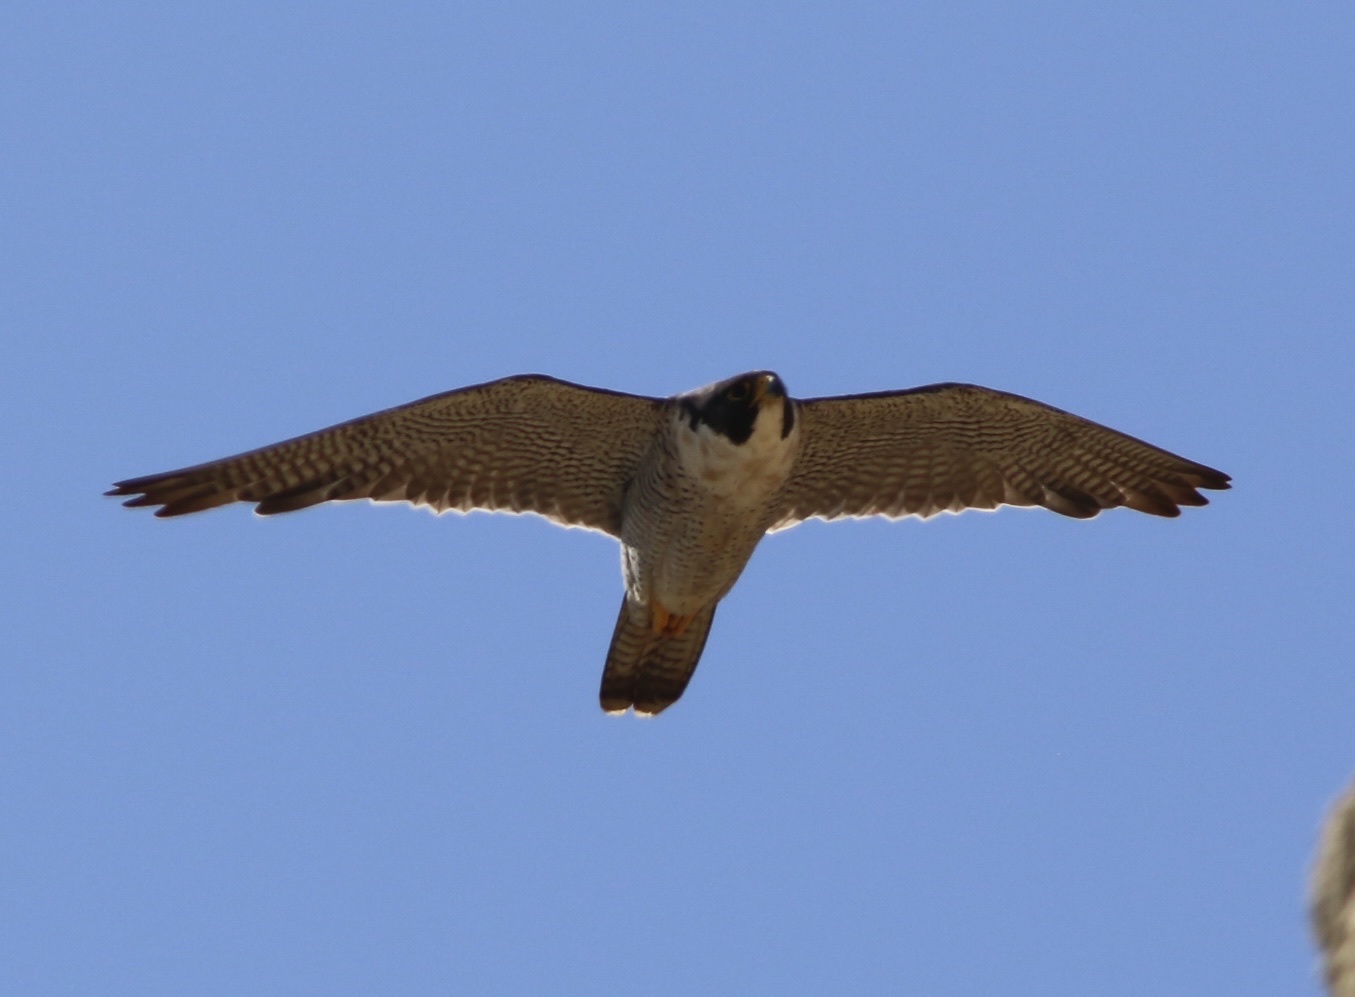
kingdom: Animalia
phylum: Chordata
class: Aves
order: Falconiformes
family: Falconidae
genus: Falco
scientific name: Falco peregrinus
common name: Peregrine falcon
